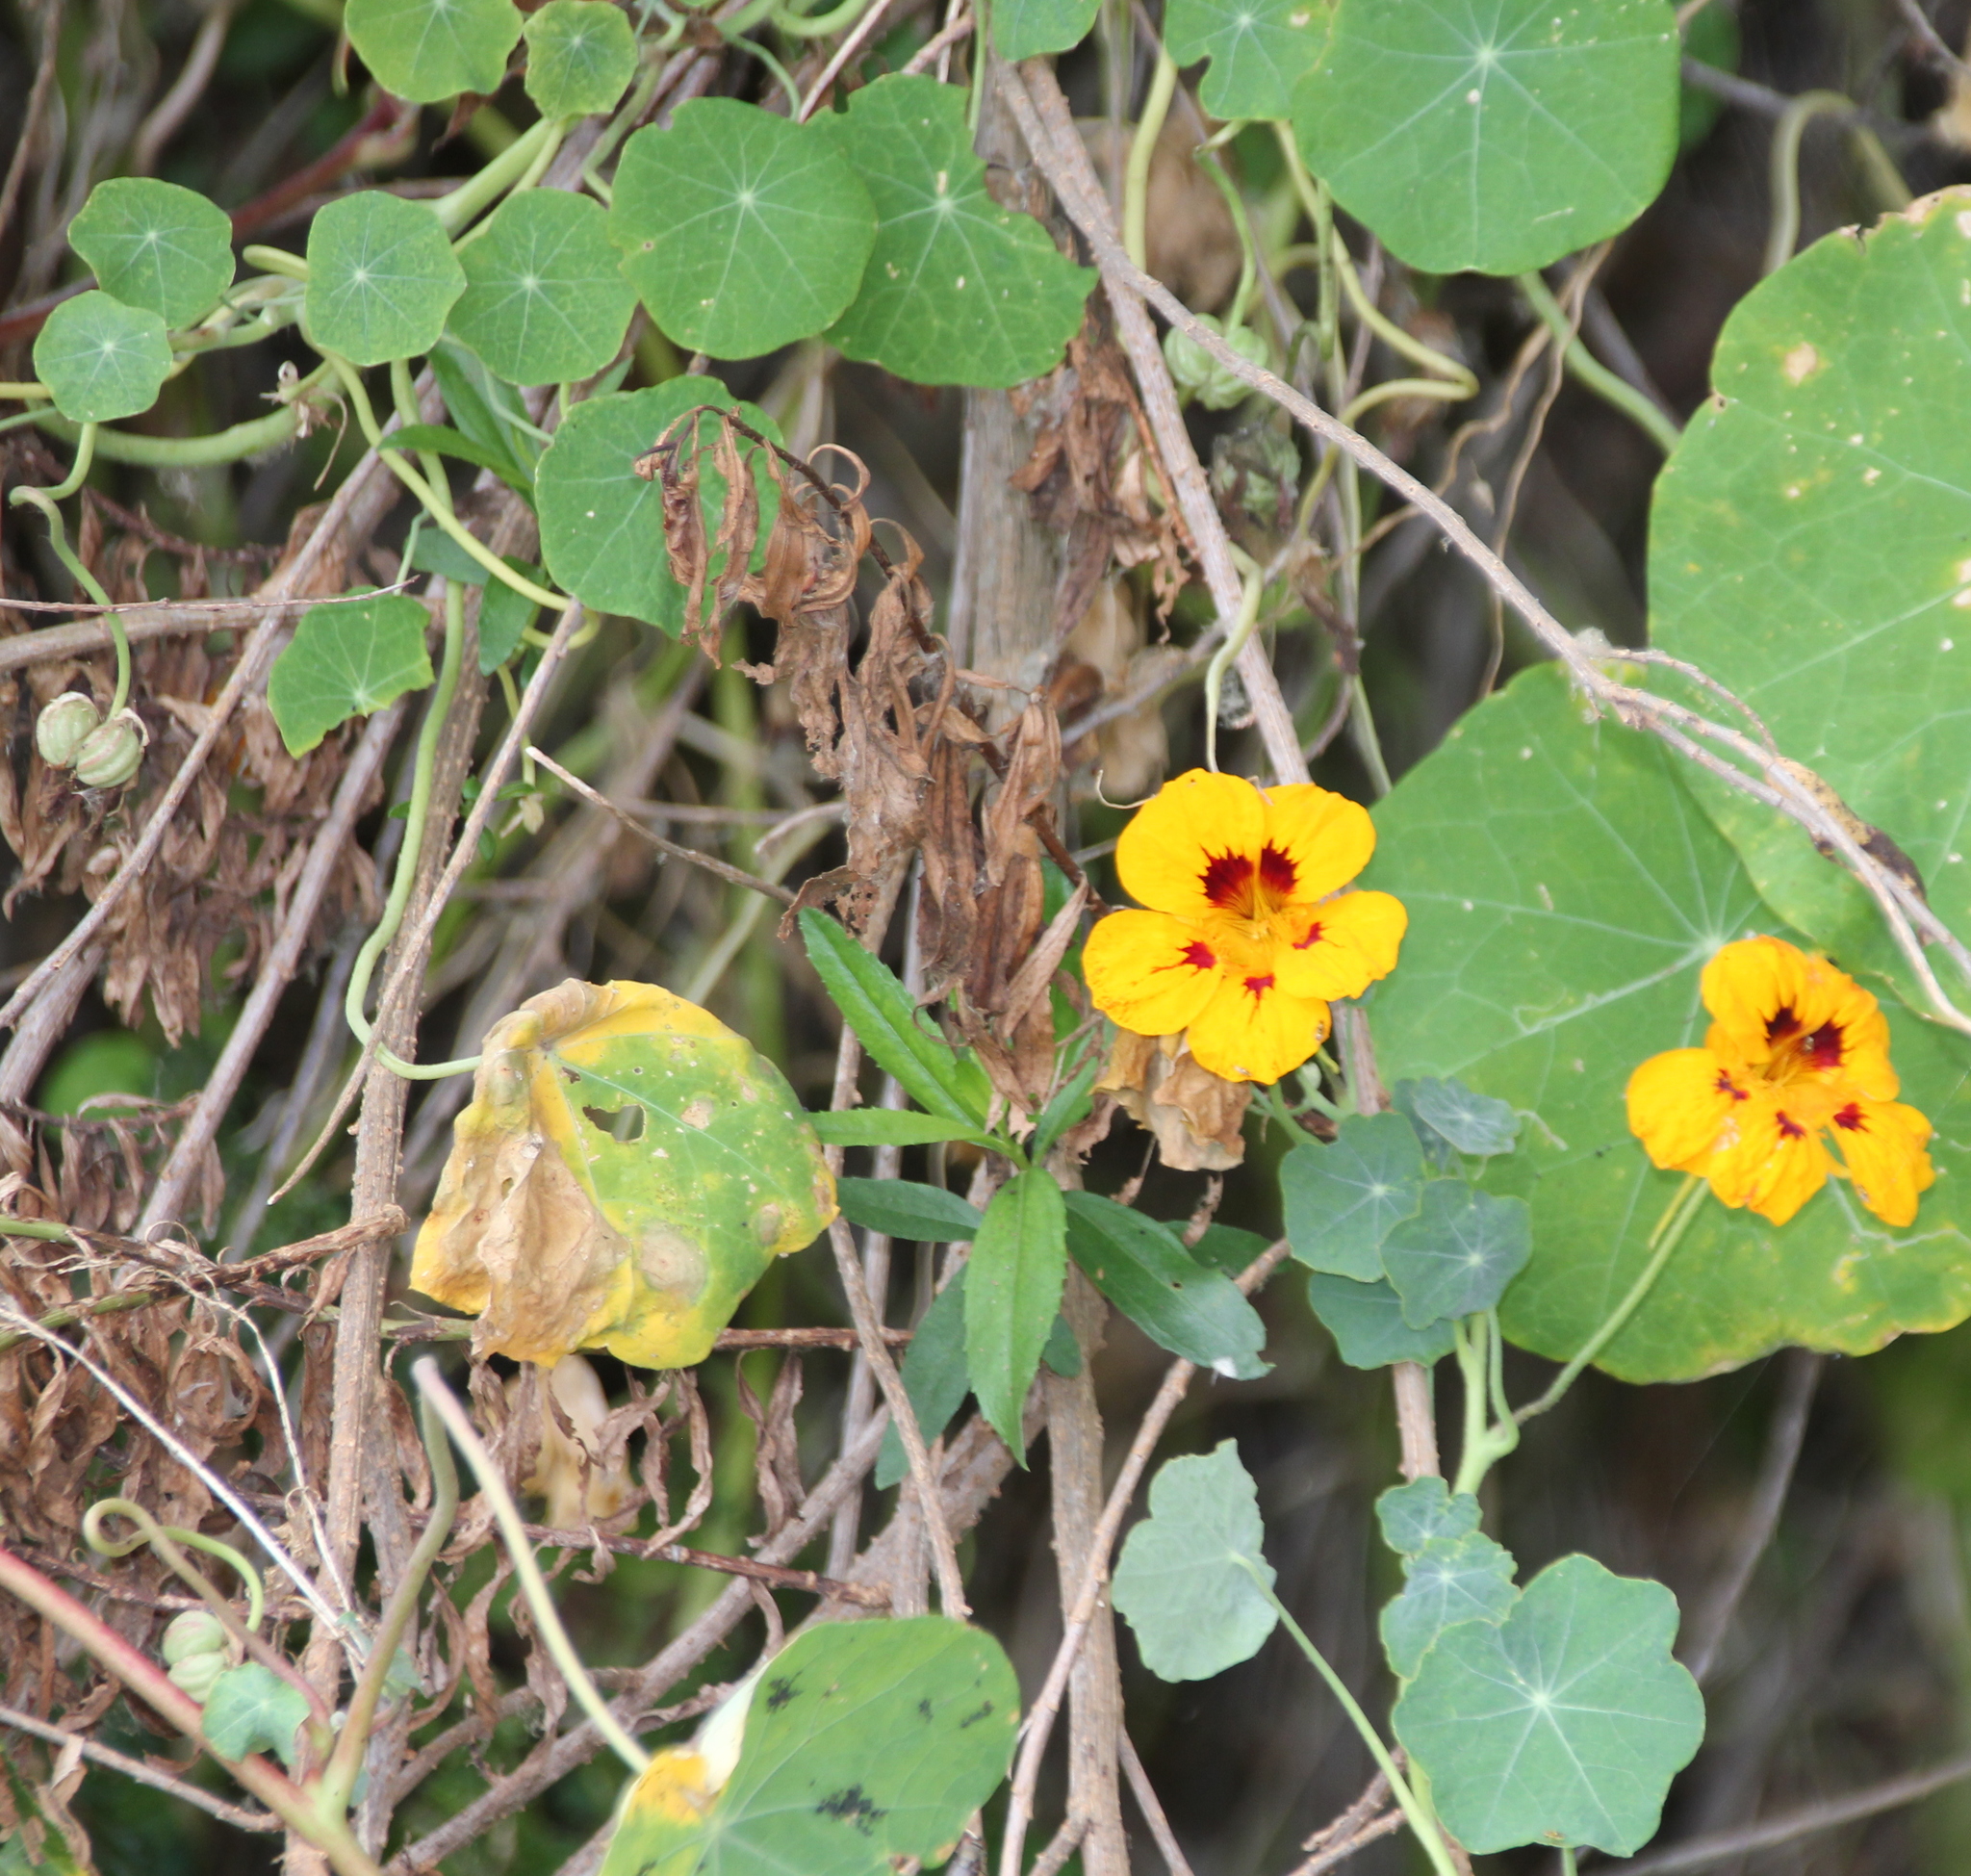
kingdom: Plantae
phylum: Tracheophyta
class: Magnoliopsida
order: Brassicales
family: Tropaeolaceae
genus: Tropaeolum
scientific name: Tropaeolum majus
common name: Nasturtium
